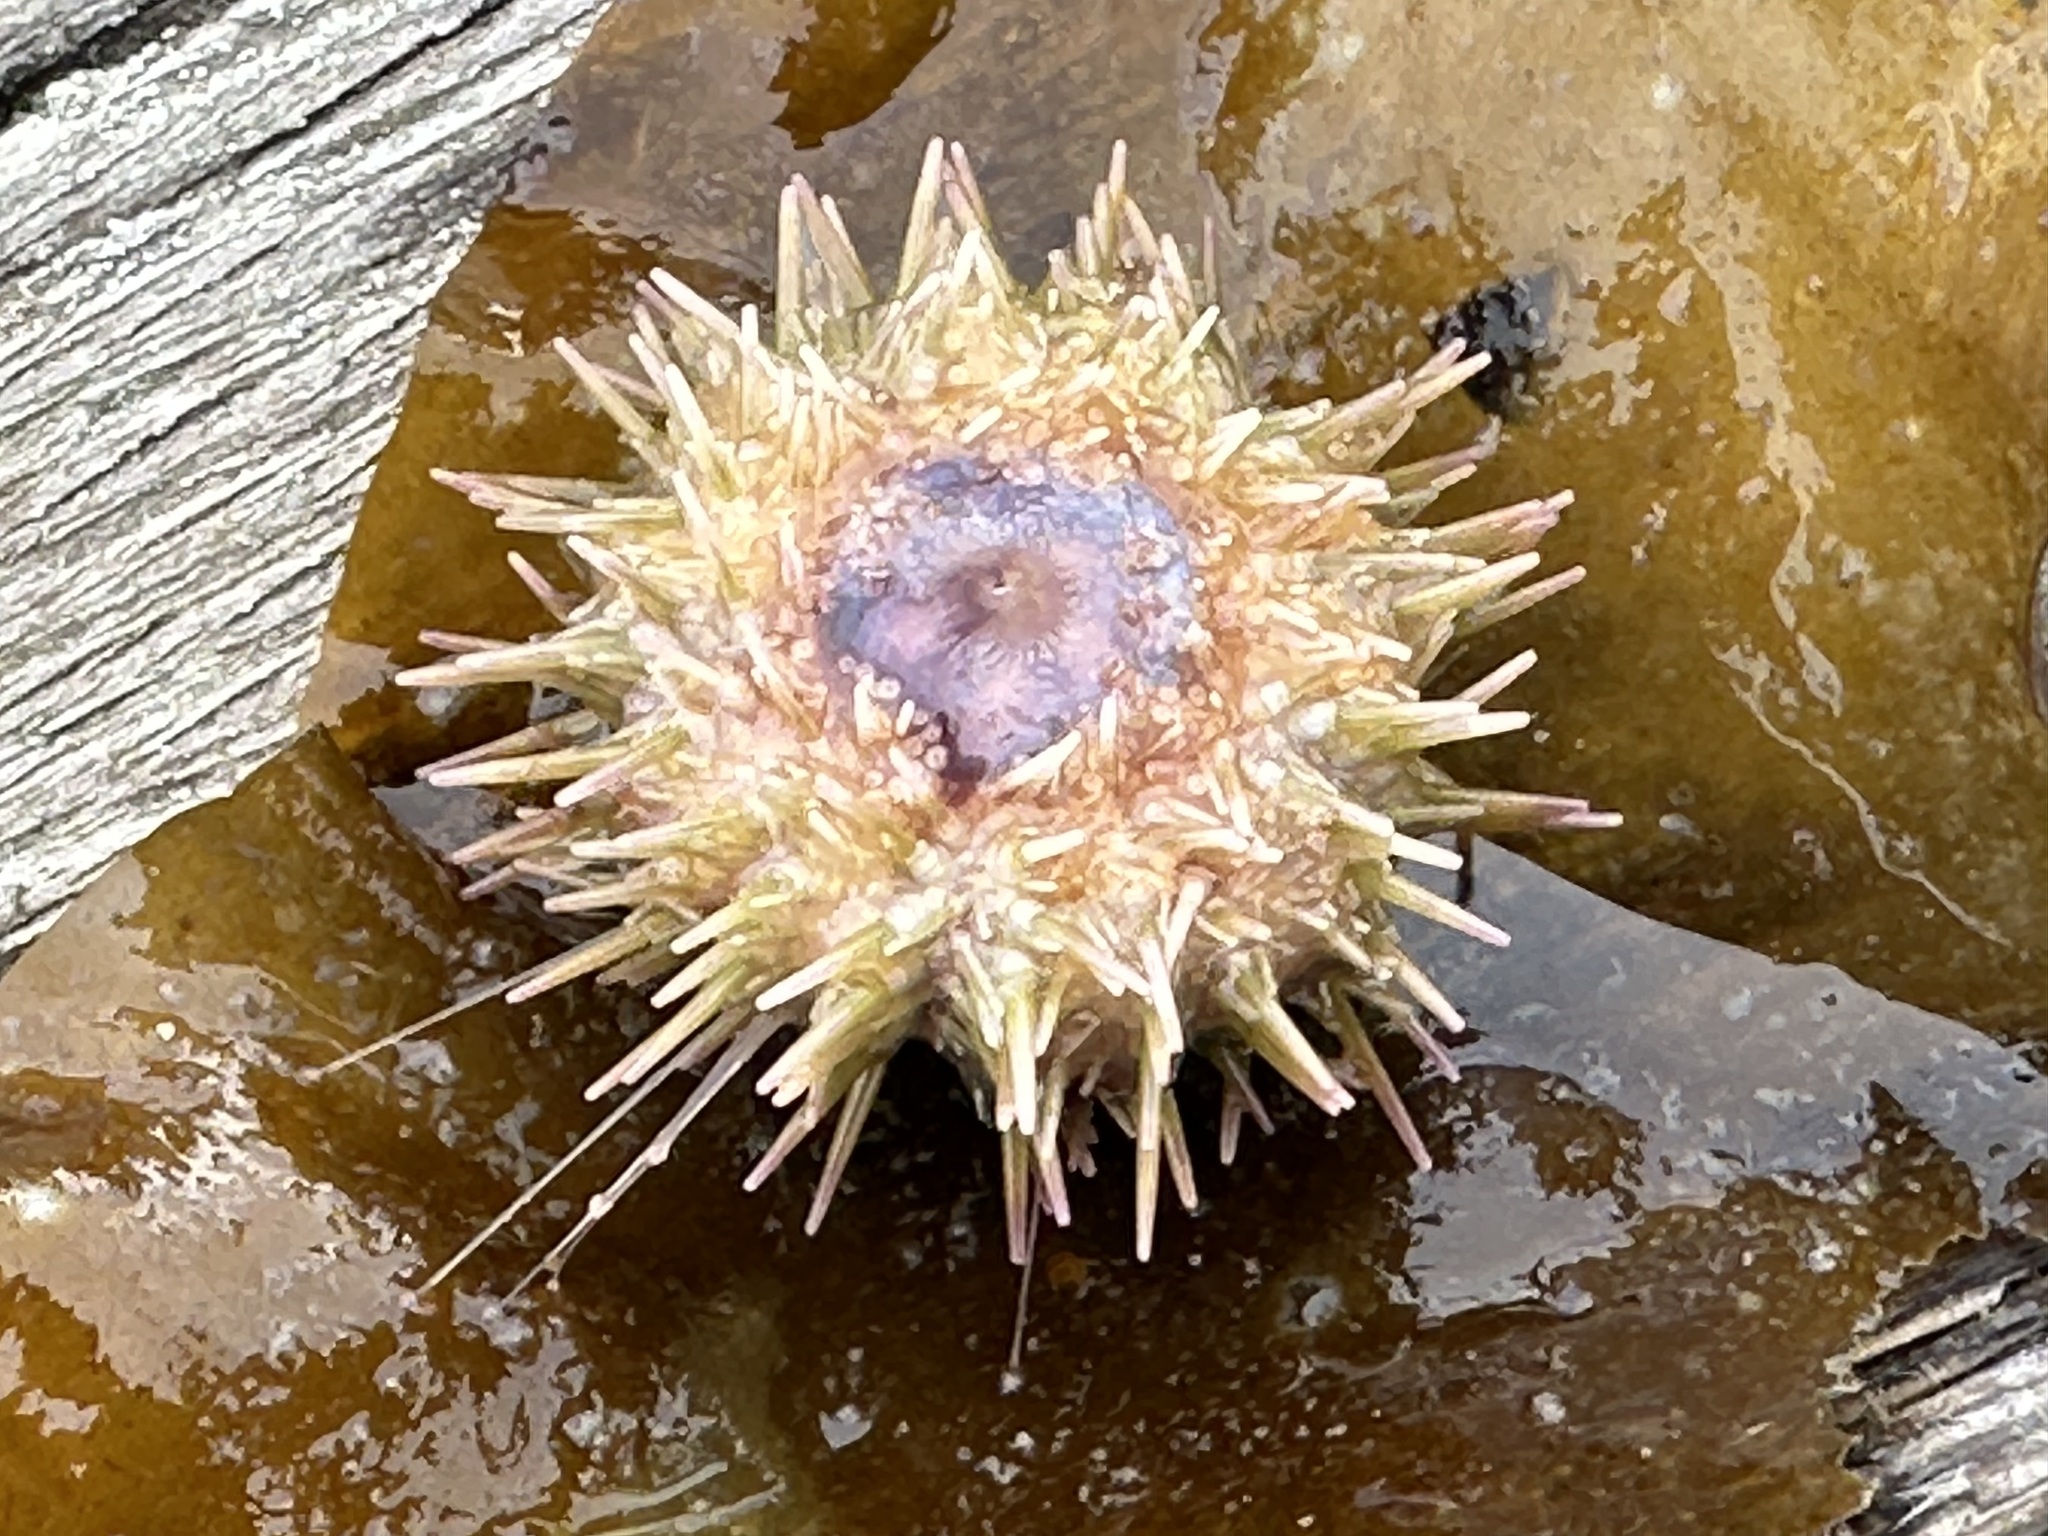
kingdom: Animalia
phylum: Echinodermata
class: Echinoidea
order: Camarodonta
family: Strongylocentrotidae
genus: Strongylocentrotus
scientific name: Strongylocentrotus droebachiensis
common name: Northern sea urchin
